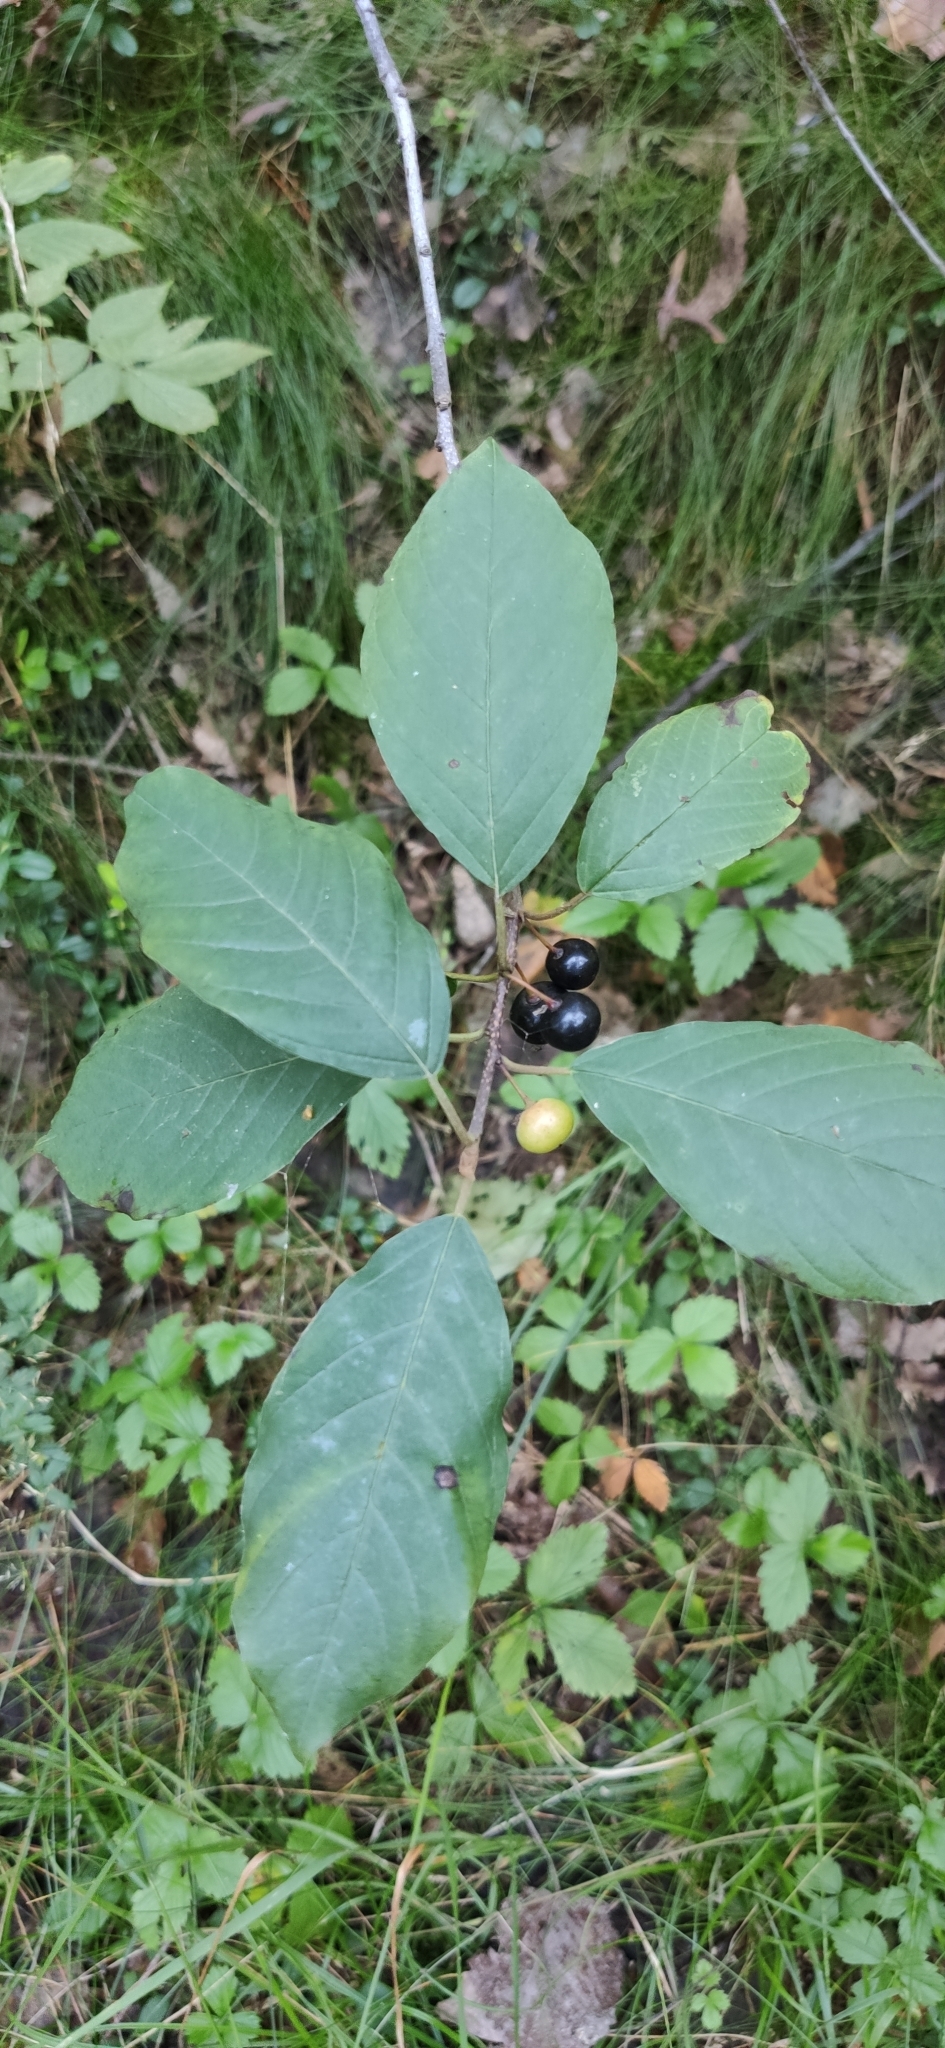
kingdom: Plantae
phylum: Tracheophyta
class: Magnoliopsida
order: Rosales
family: Rhamnaceae
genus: Frangula
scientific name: Frangula alnus
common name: Alder buckthorn
